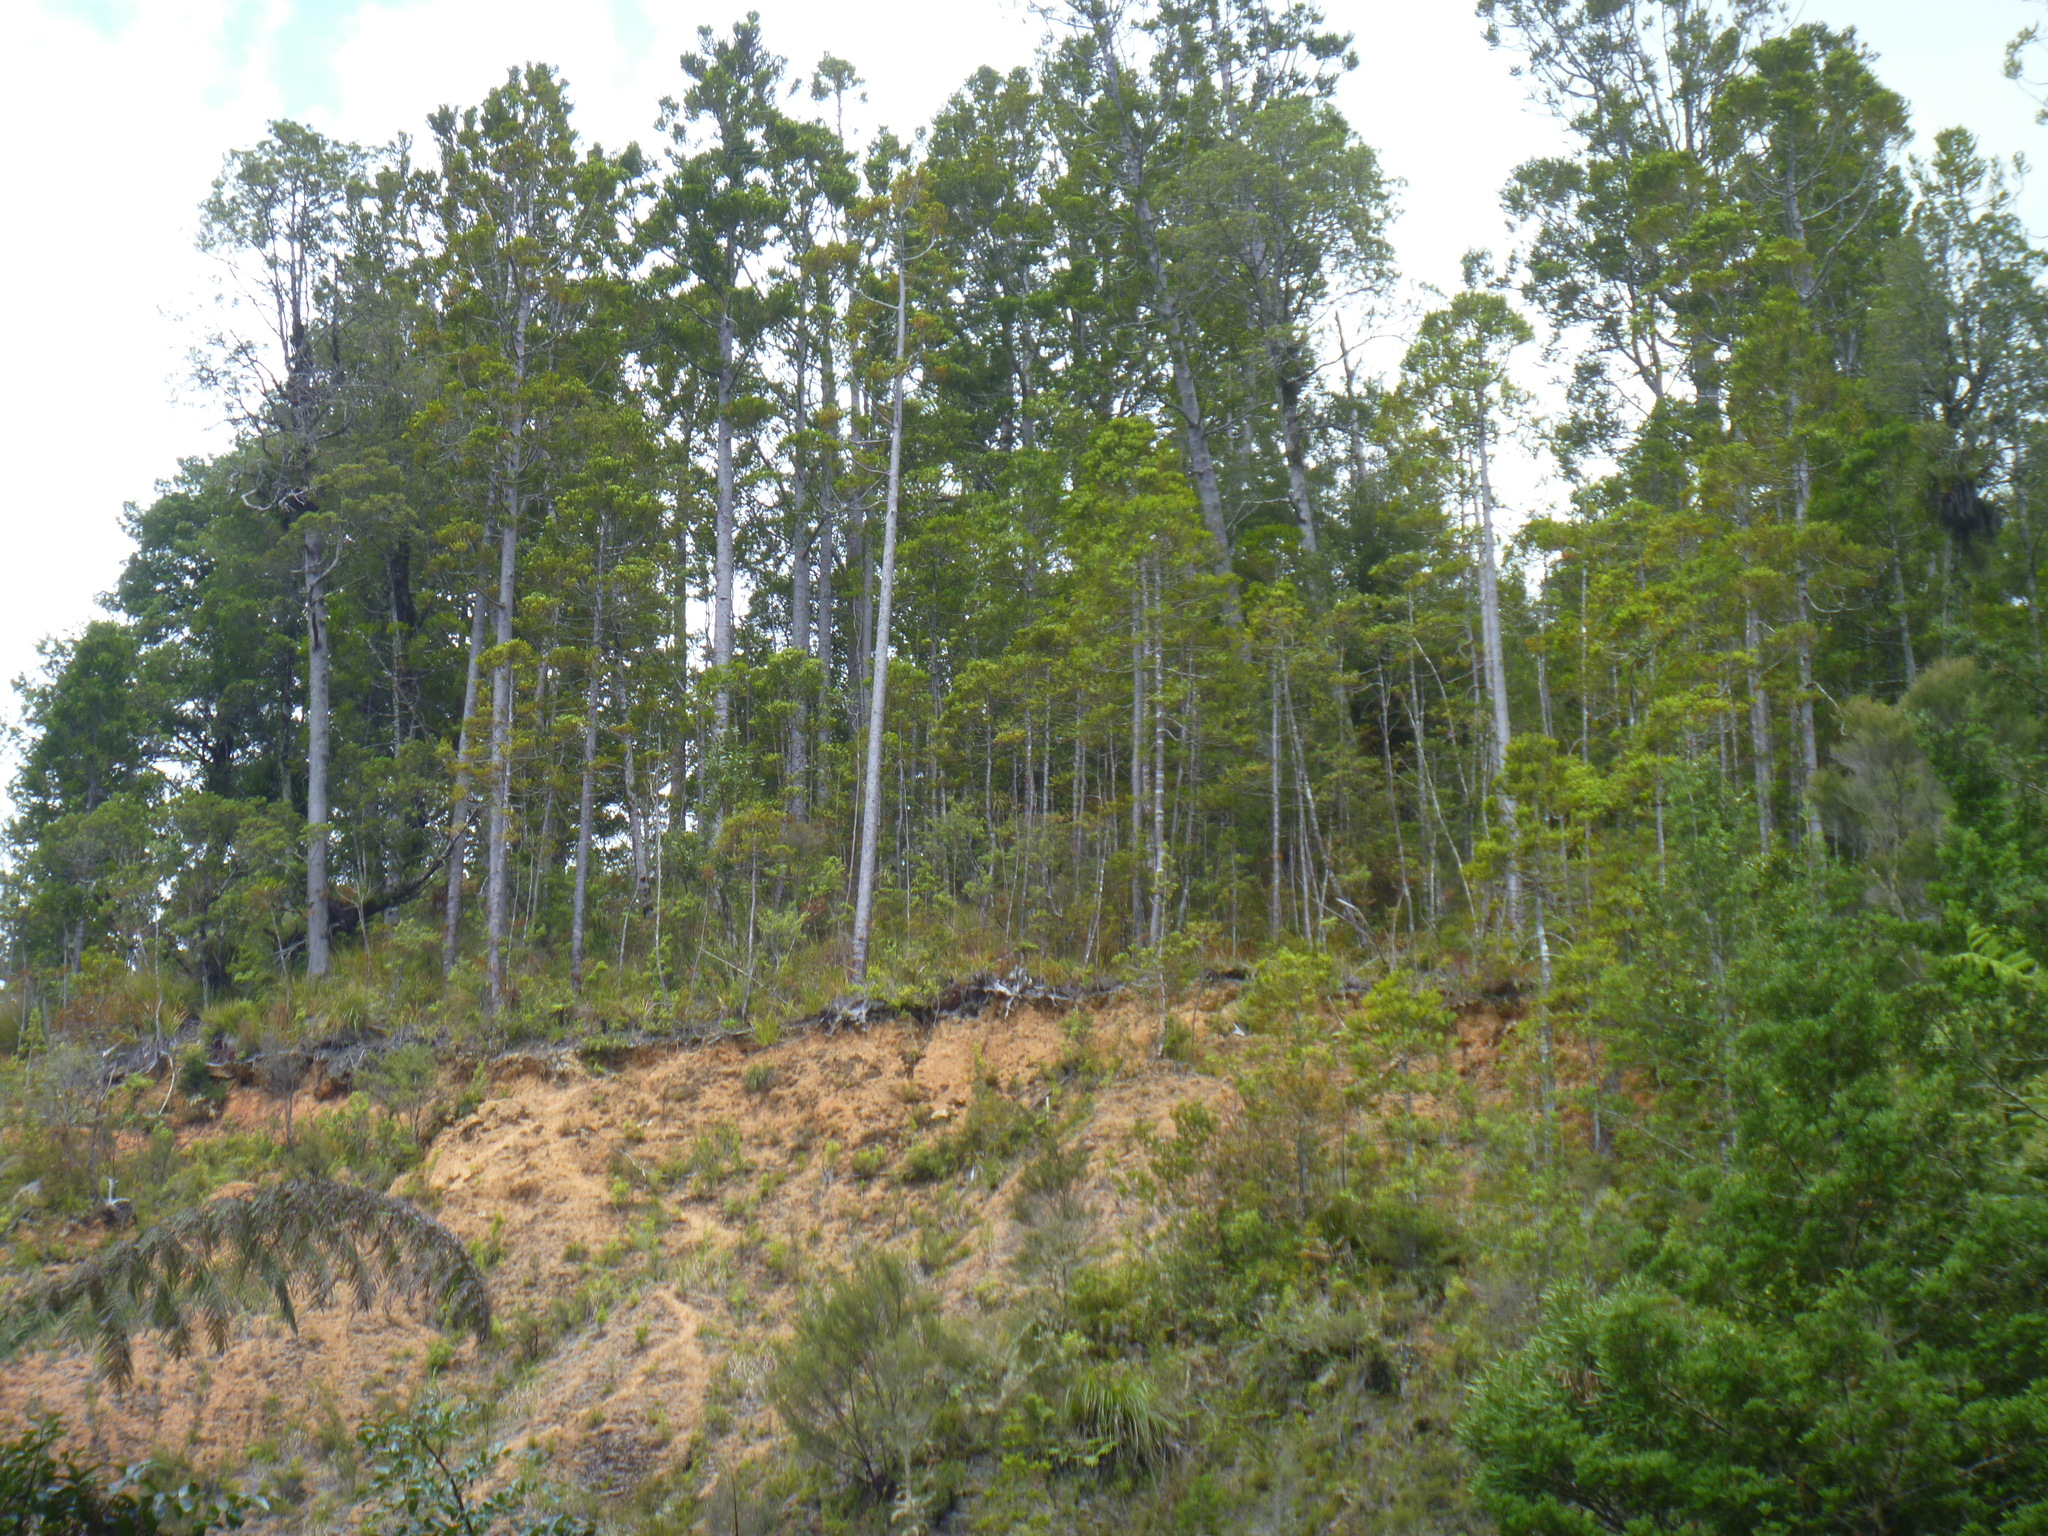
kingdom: Plantae
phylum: Tracheophyta
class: Pinopsida
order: Pinales
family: Araucariaceae
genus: Agathis
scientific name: Agathis australis
